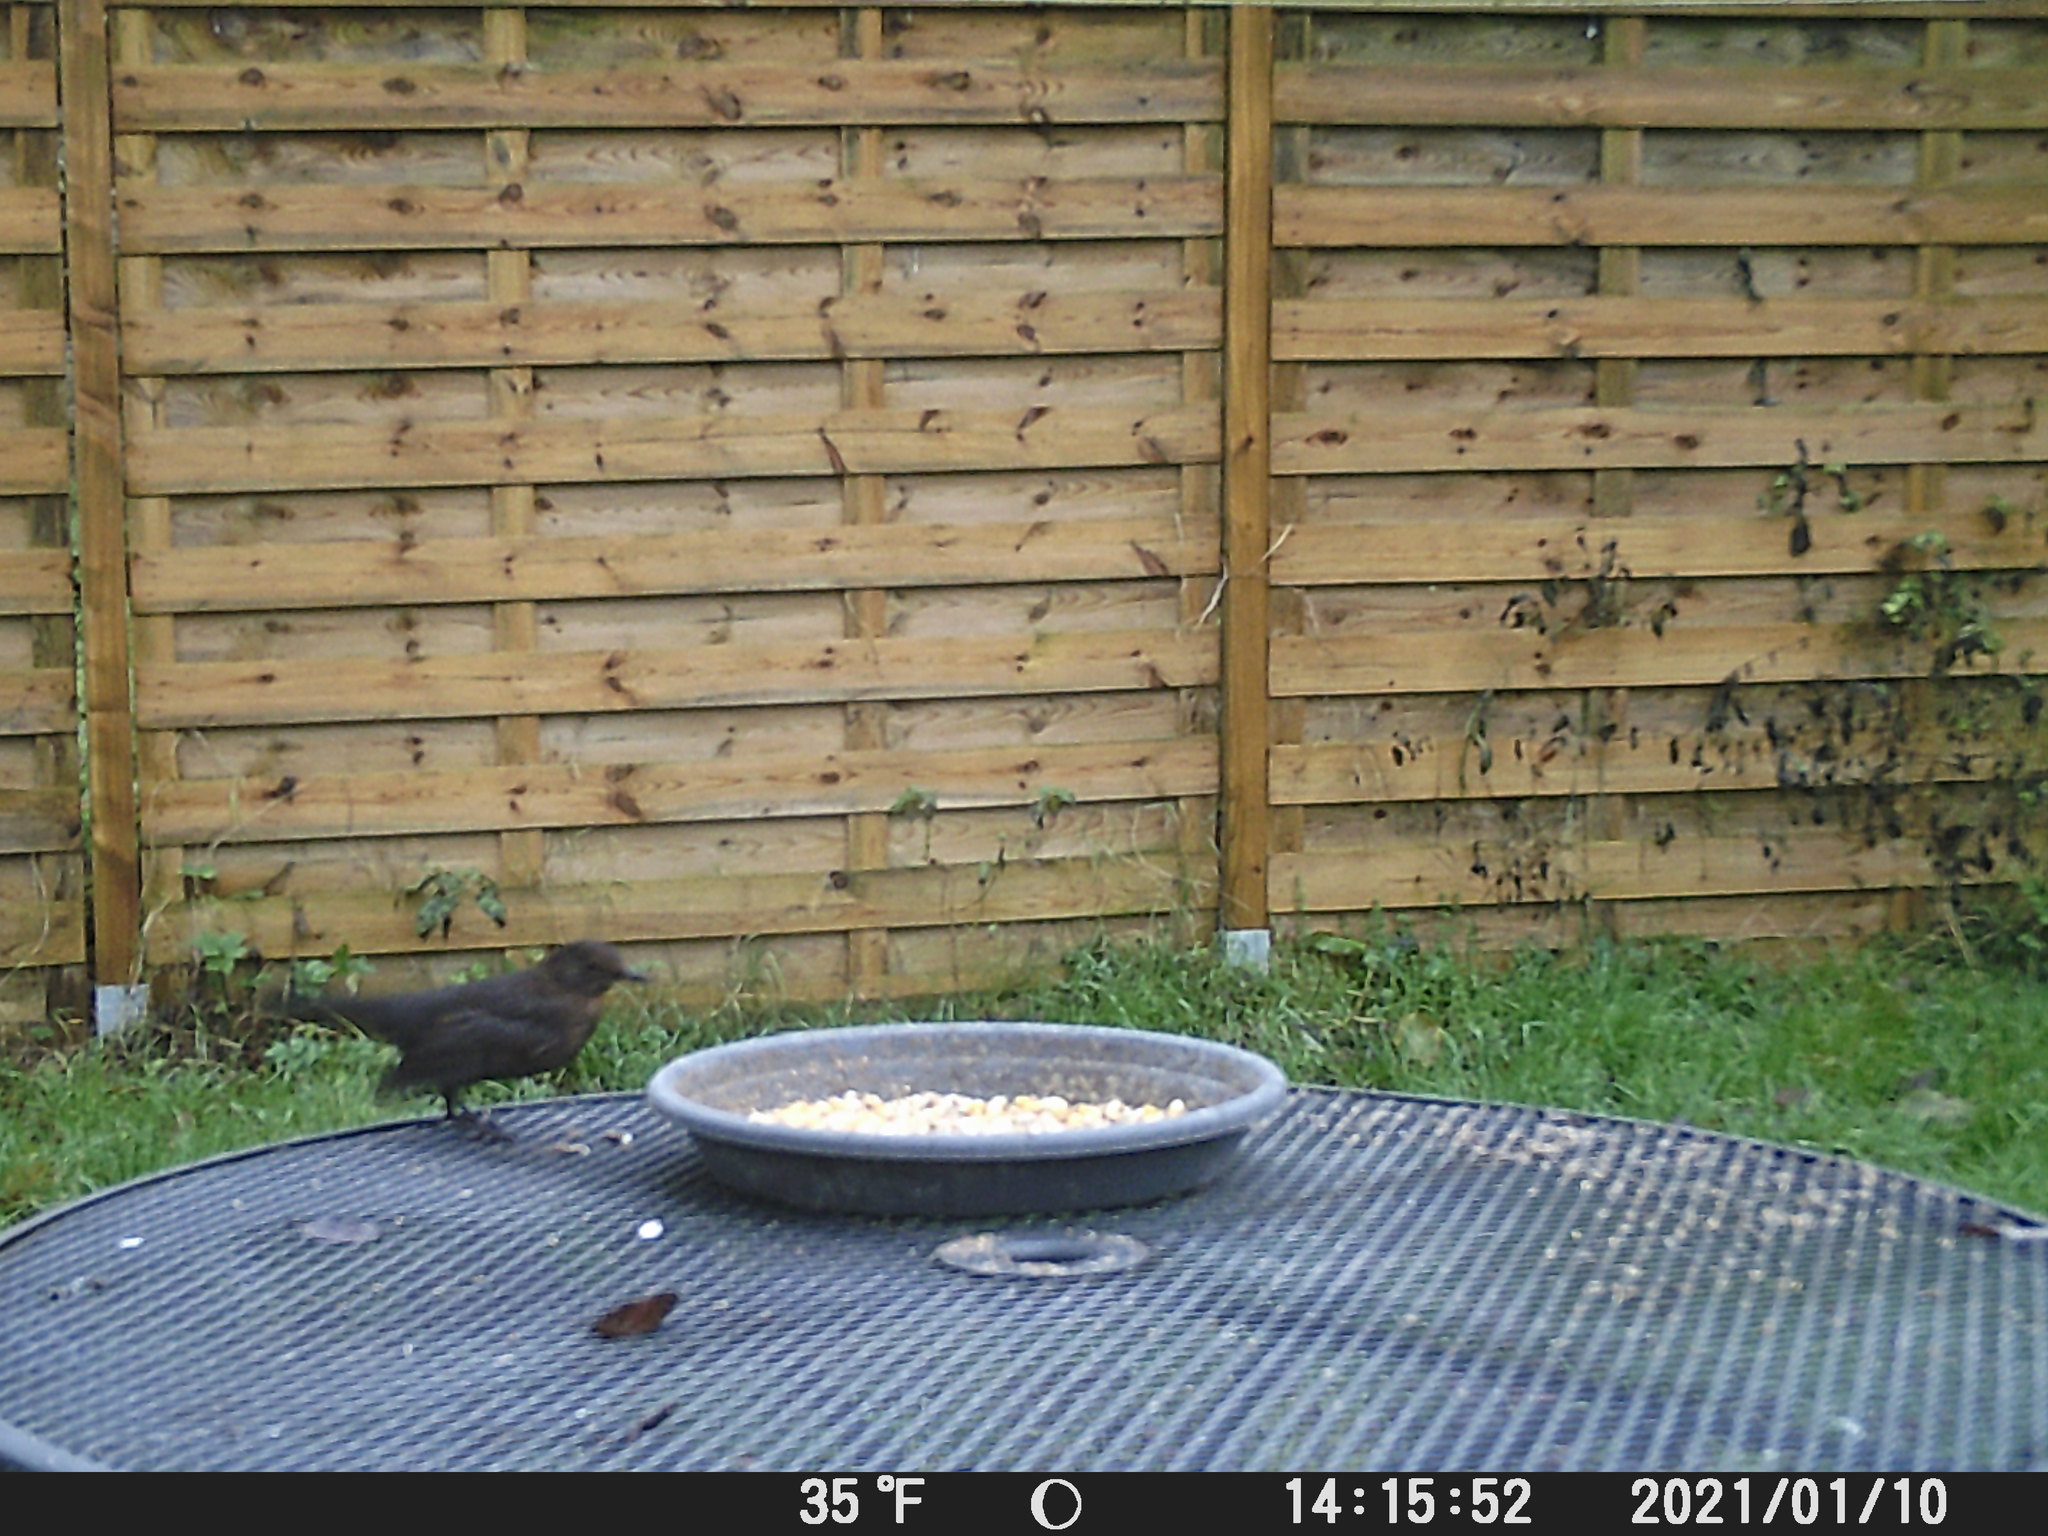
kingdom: Animalia
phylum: Chordata
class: Aves
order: Passeriformes
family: Turdidae
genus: Turdus
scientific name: Turdus merula
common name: Common blackbird
